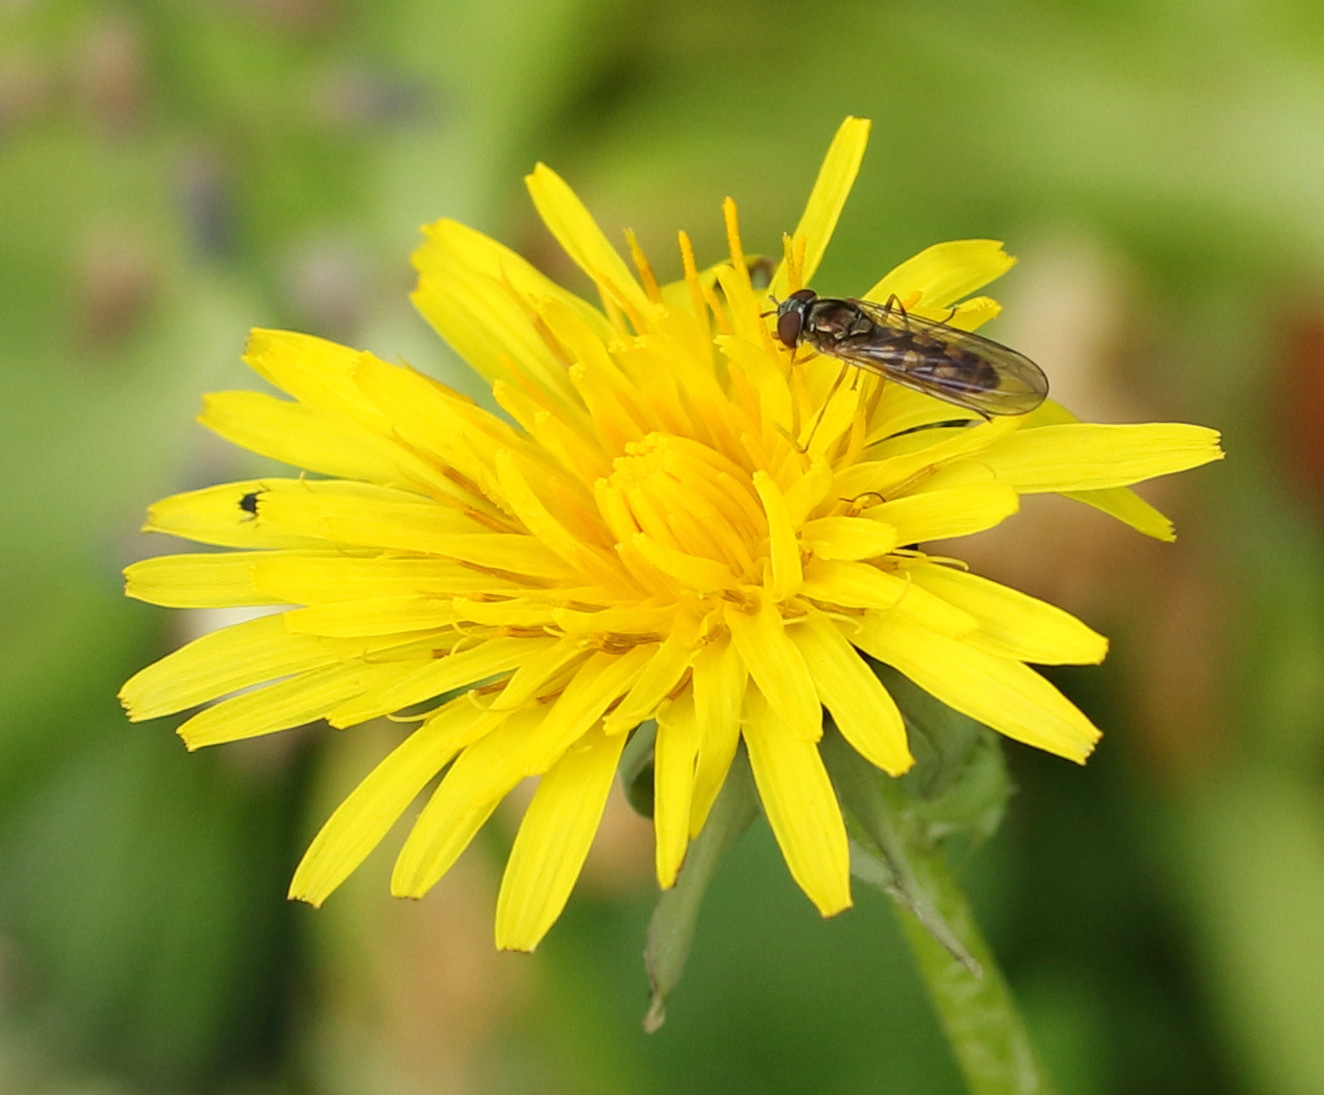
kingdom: Animalia
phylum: Arthropoda
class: Insecta
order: Diptera
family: Syrphidae
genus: Melanostoma
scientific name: Melanostoma
